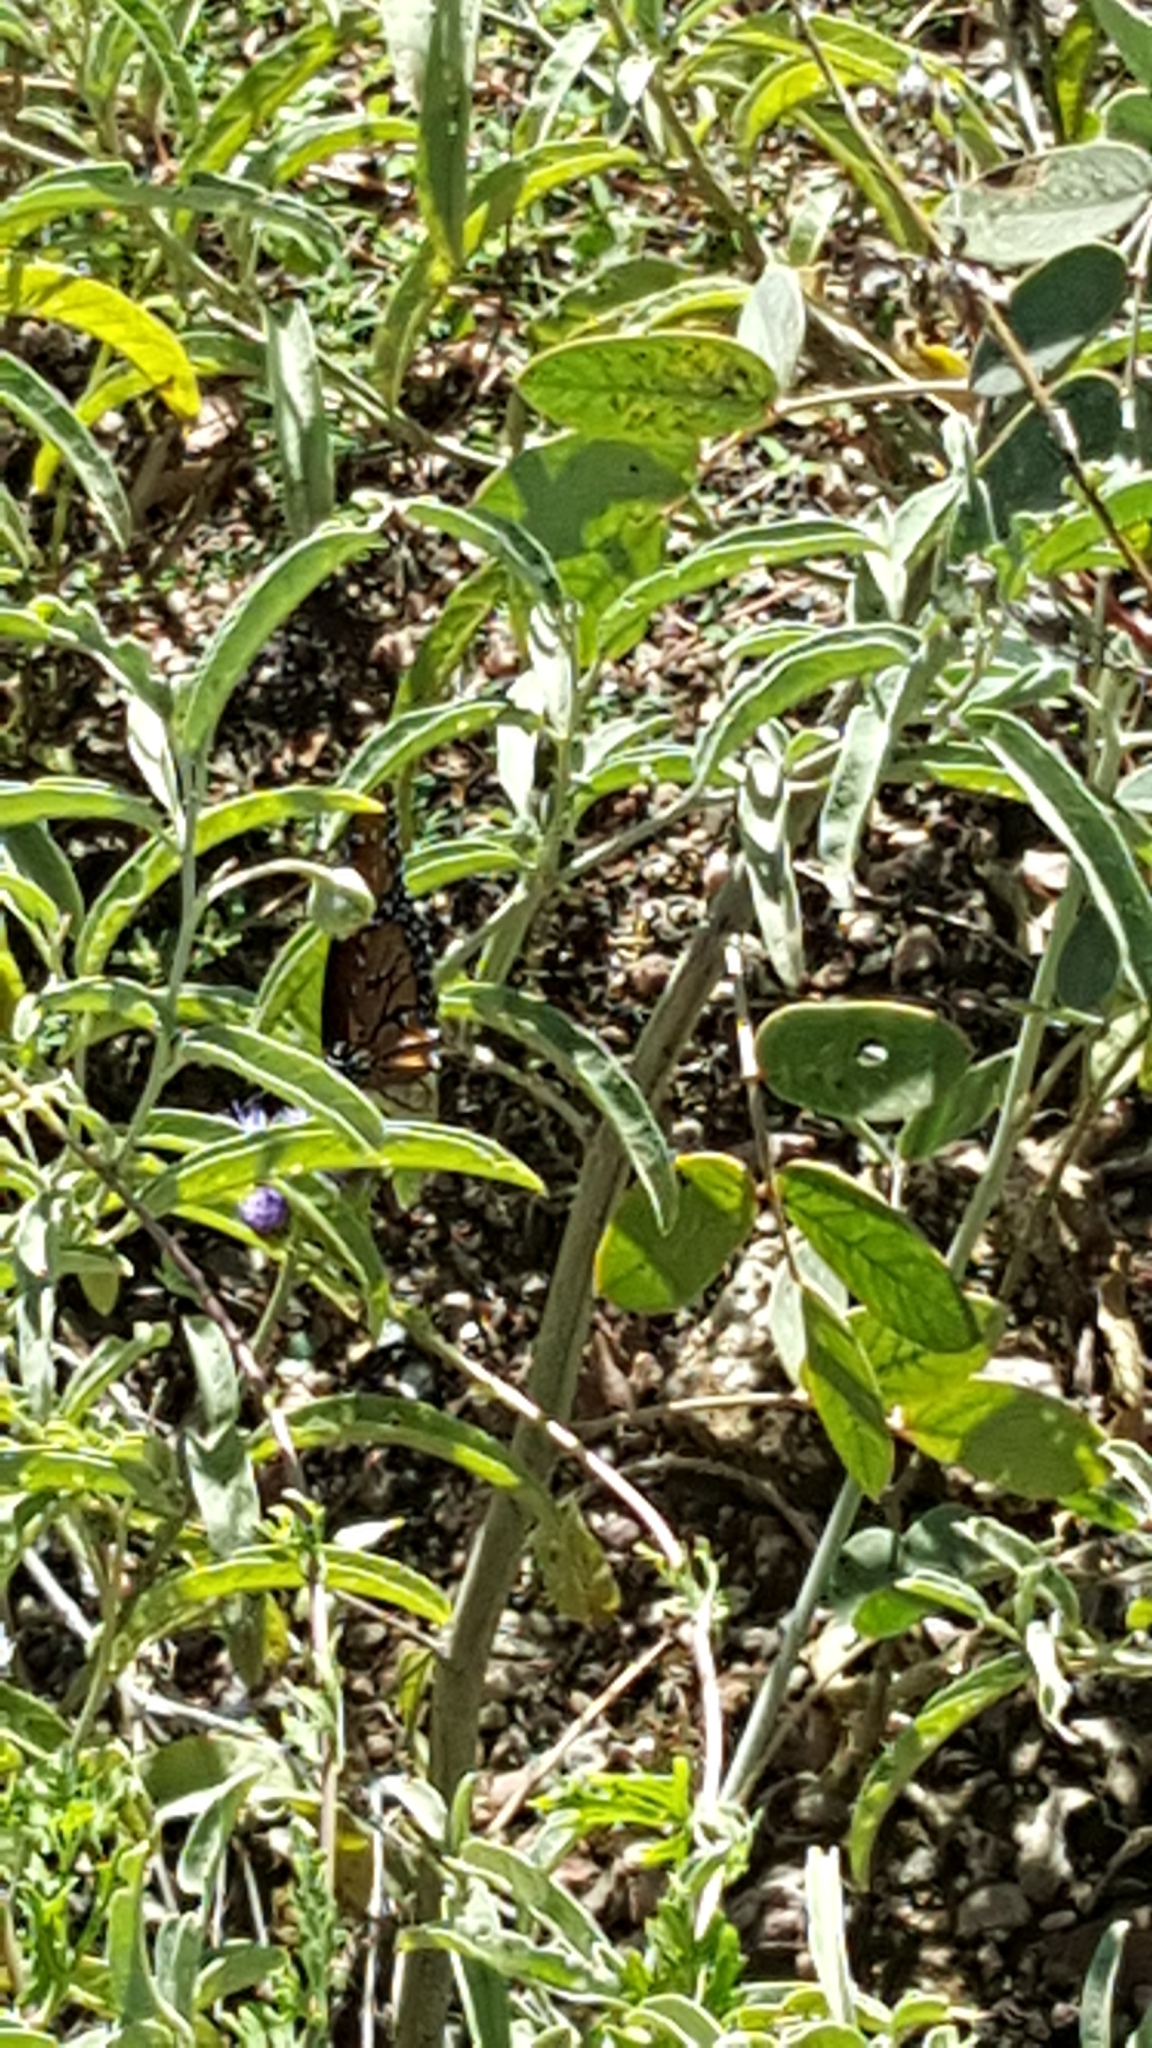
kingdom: Animalia
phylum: Arthropoda
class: Insecta
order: Lepidoptera
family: Nymphalidae
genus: Danaus
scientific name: Danaus gilippus
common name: Queen
